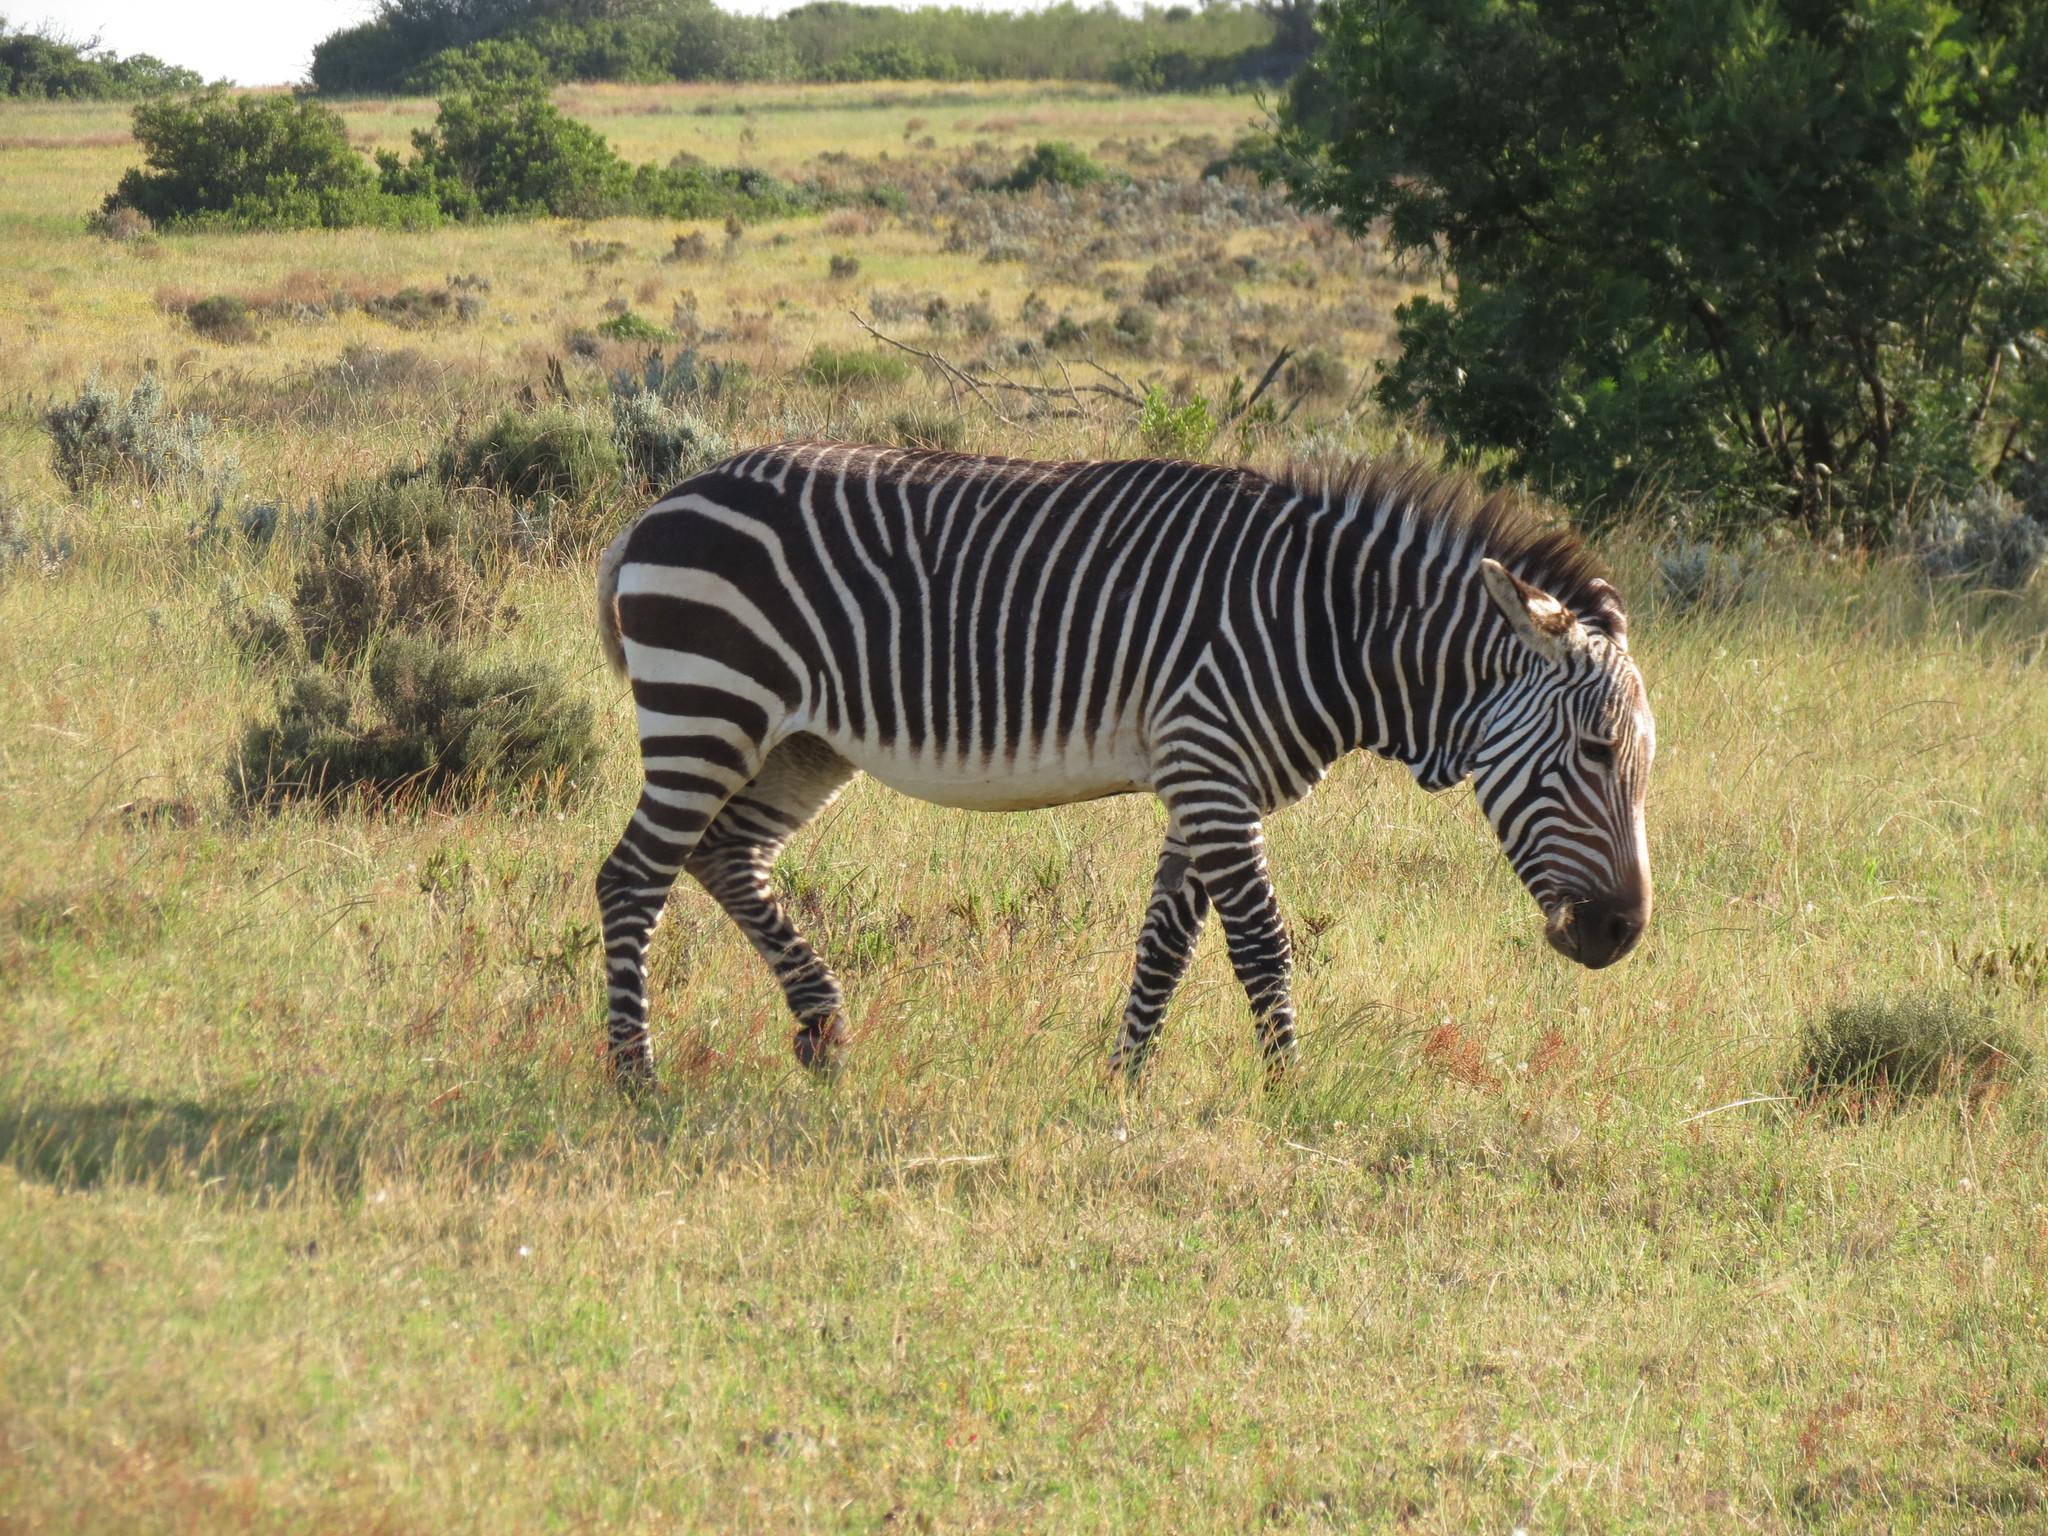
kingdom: Animalia
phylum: Chordata
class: Mammalia
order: Perissodactyla
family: Equidae
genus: Equus
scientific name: Equus zebra
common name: Mountain zebra
